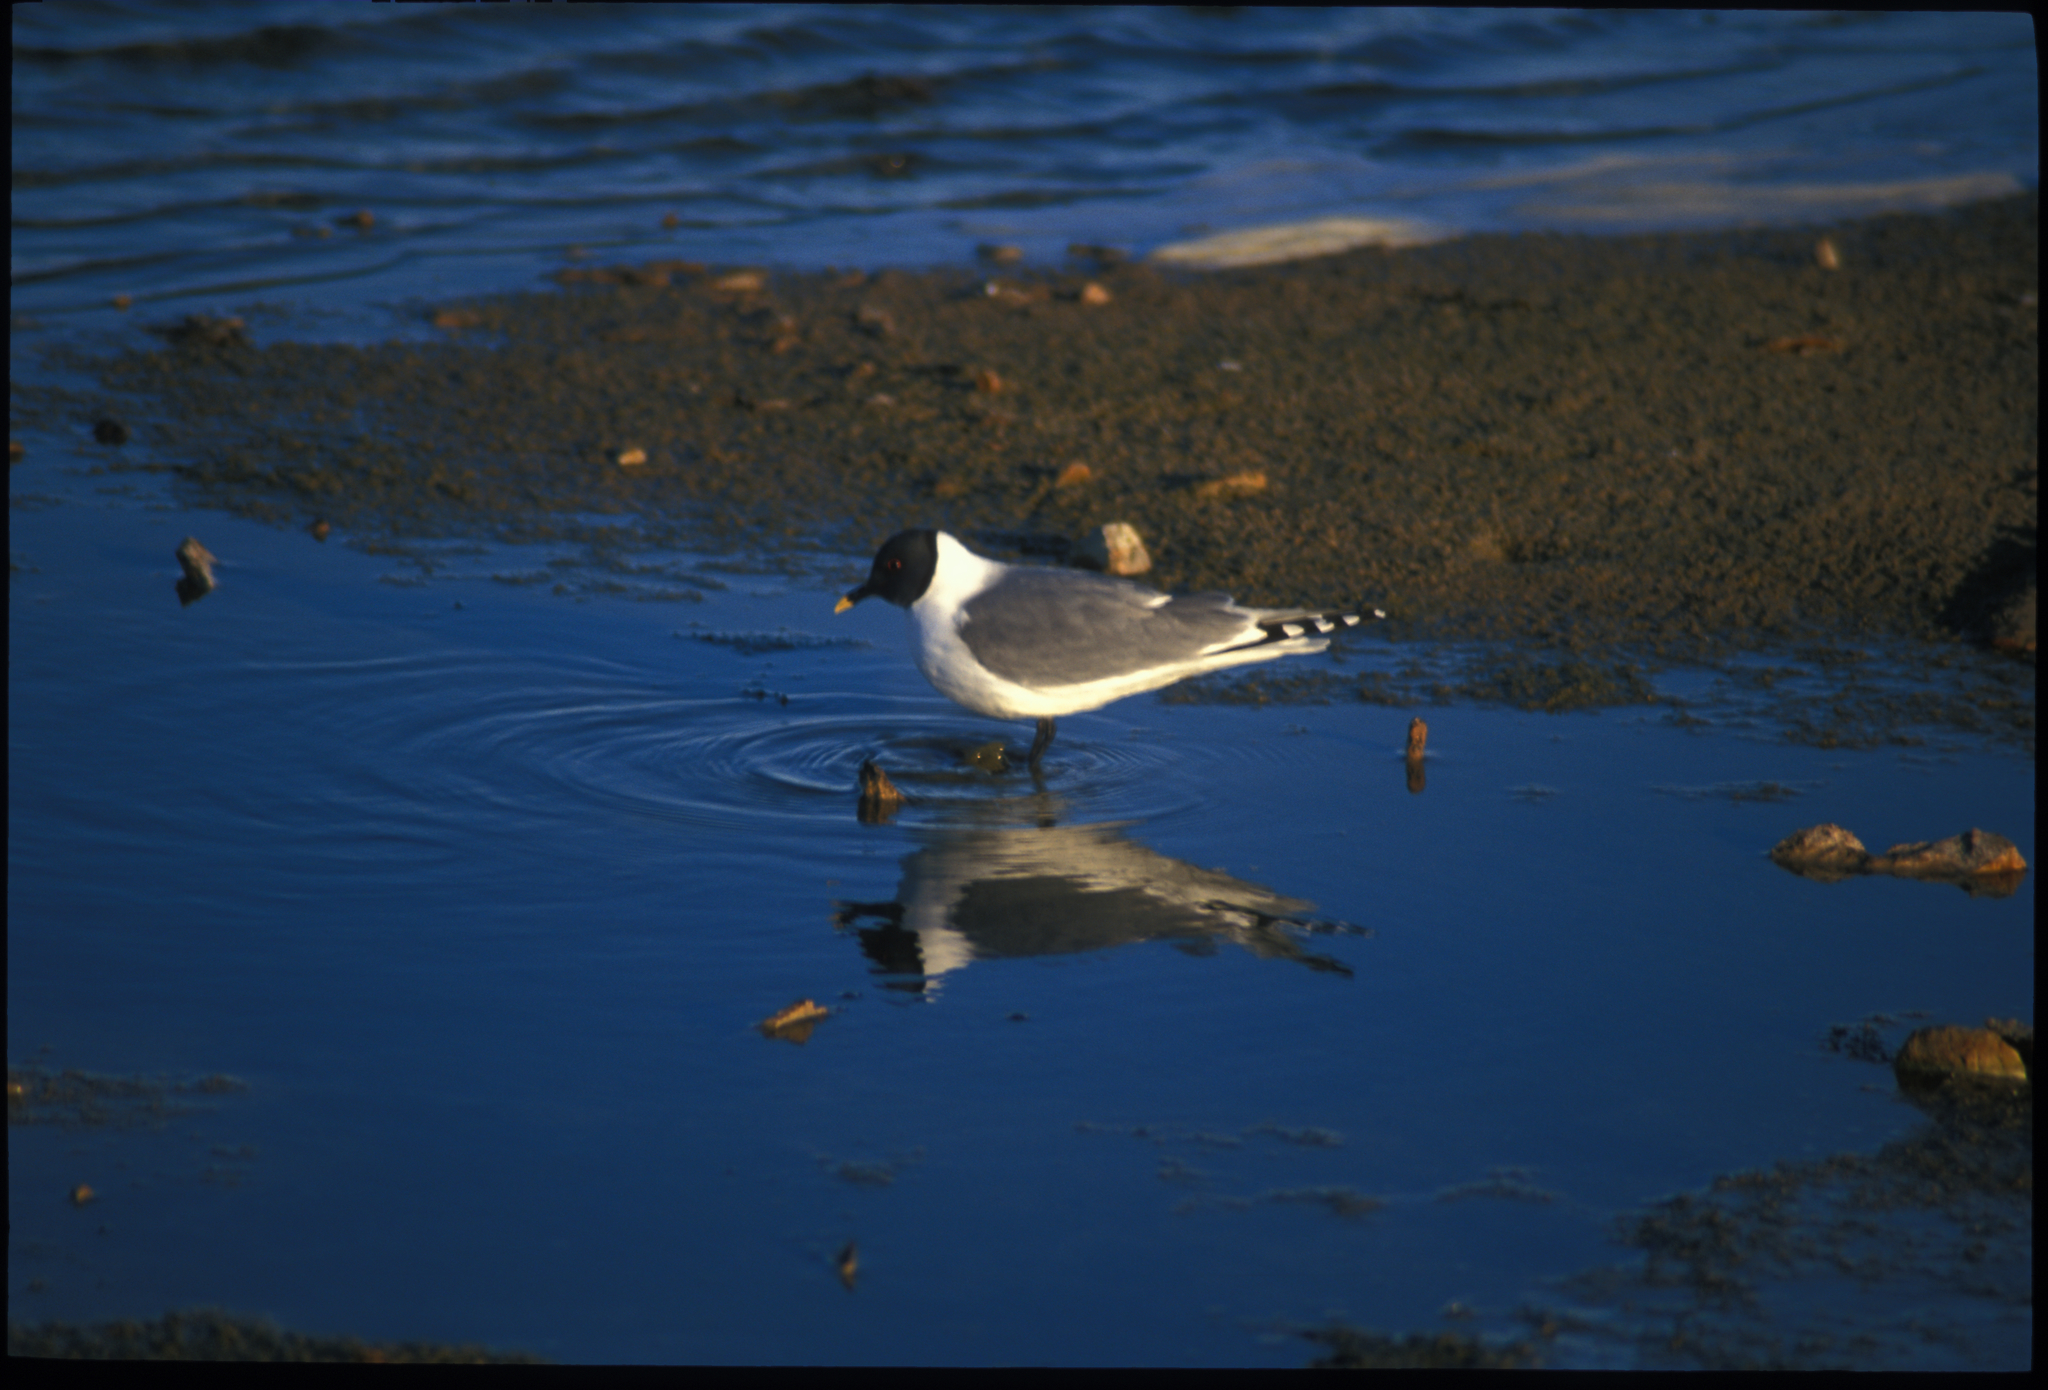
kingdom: Animalia
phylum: Chordata
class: Aves
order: Charadriiformes
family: Laridae
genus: Xema
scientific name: Xema sabini
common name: Sabine's gull
